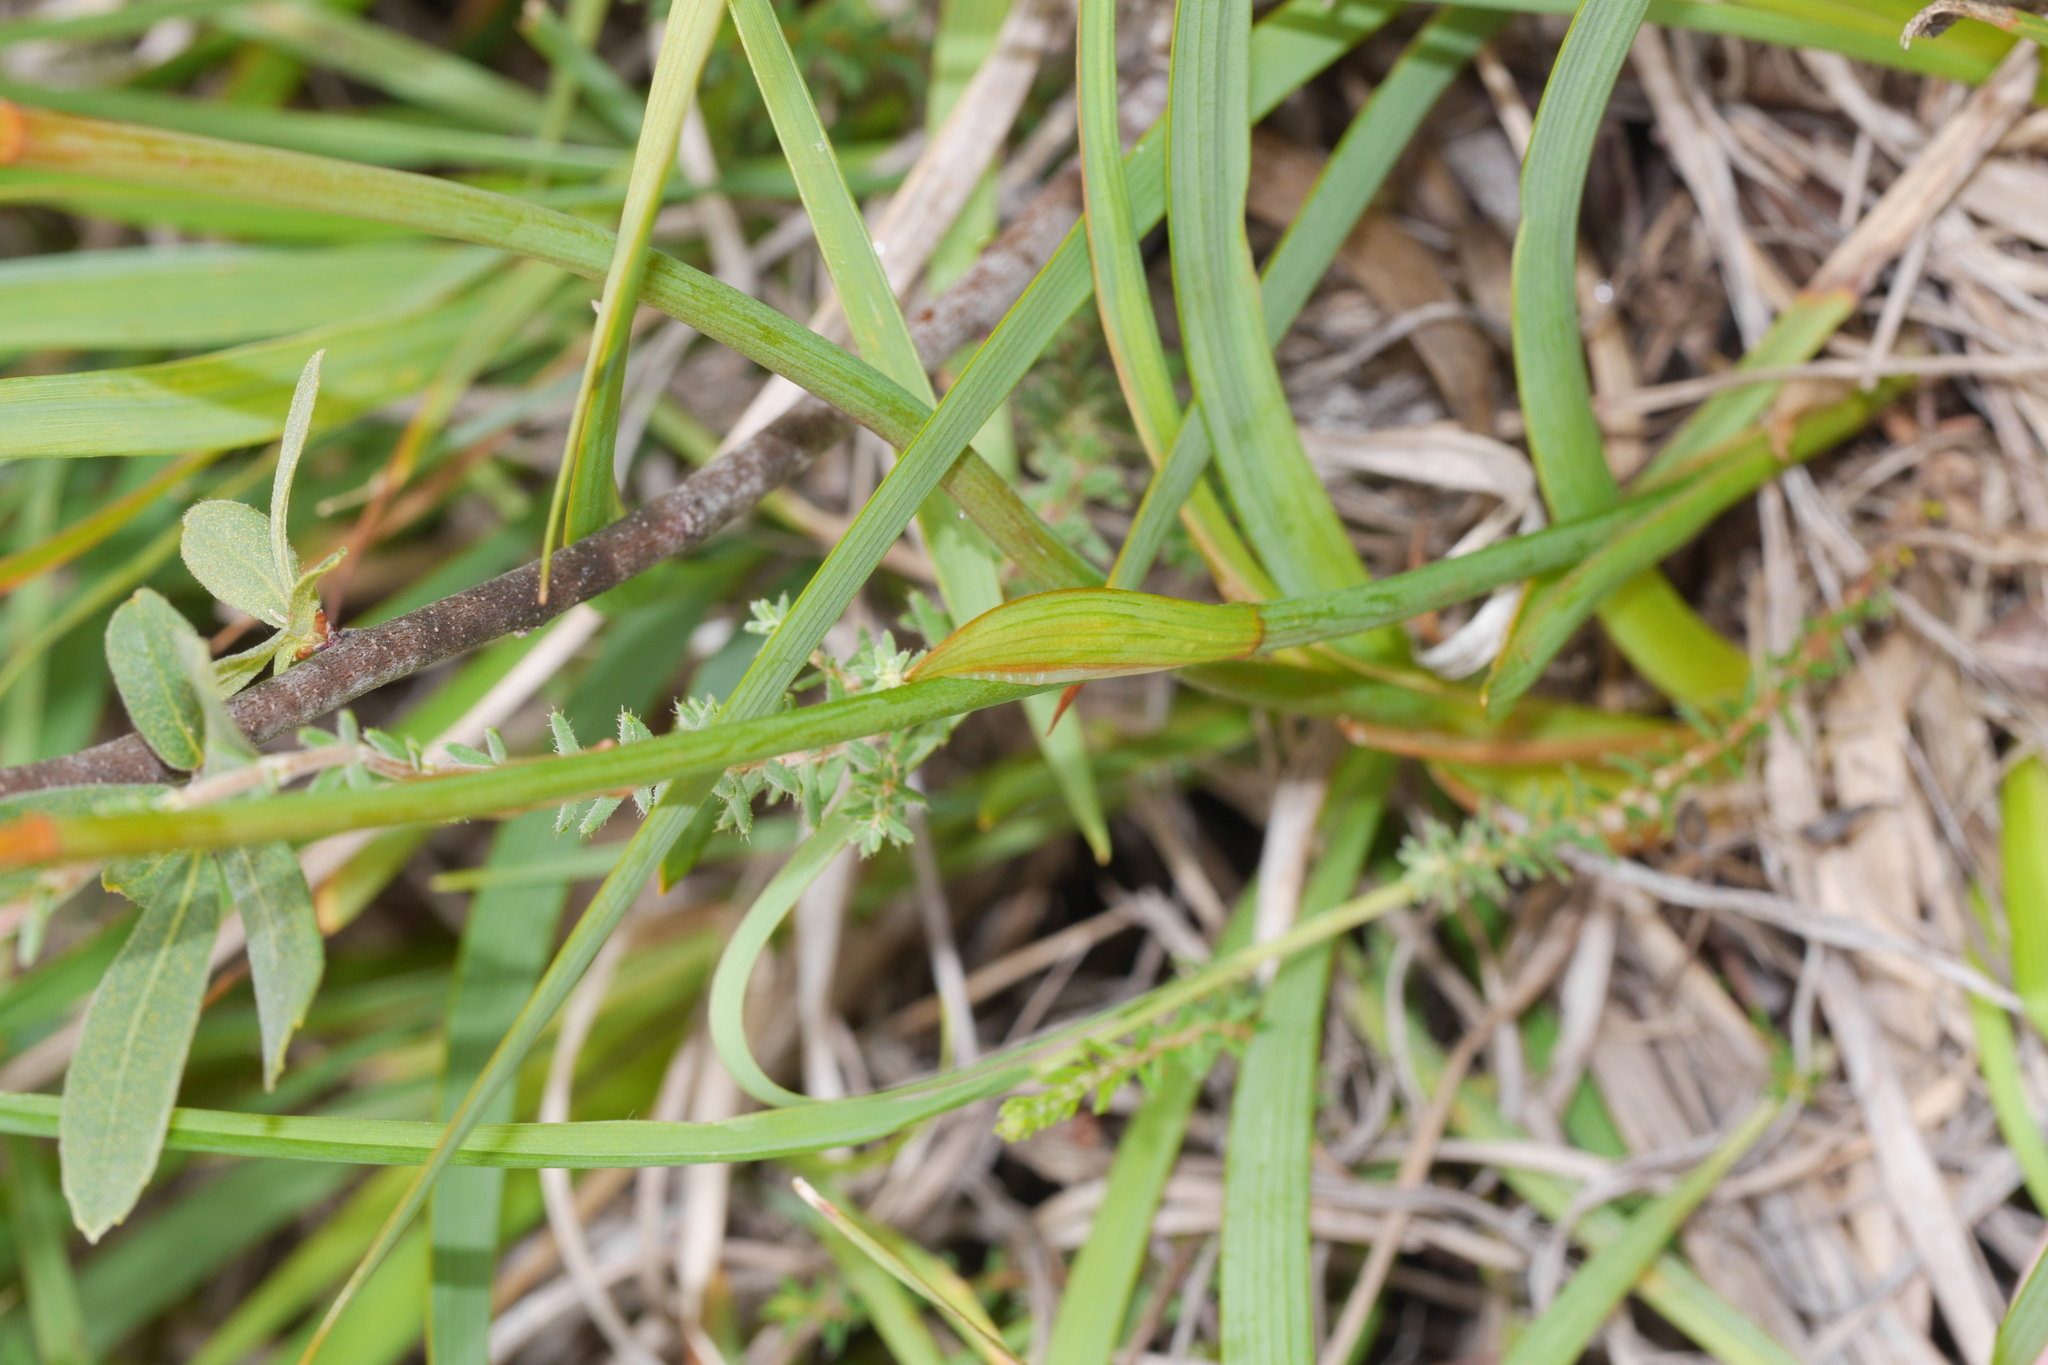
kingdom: Plantae
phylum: Tracheophyta
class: Liliopsida
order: Dioscoreales
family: Nartheciaceae
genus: Narthecium
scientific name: Narthecium ossifragum
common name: Bog asphodel
